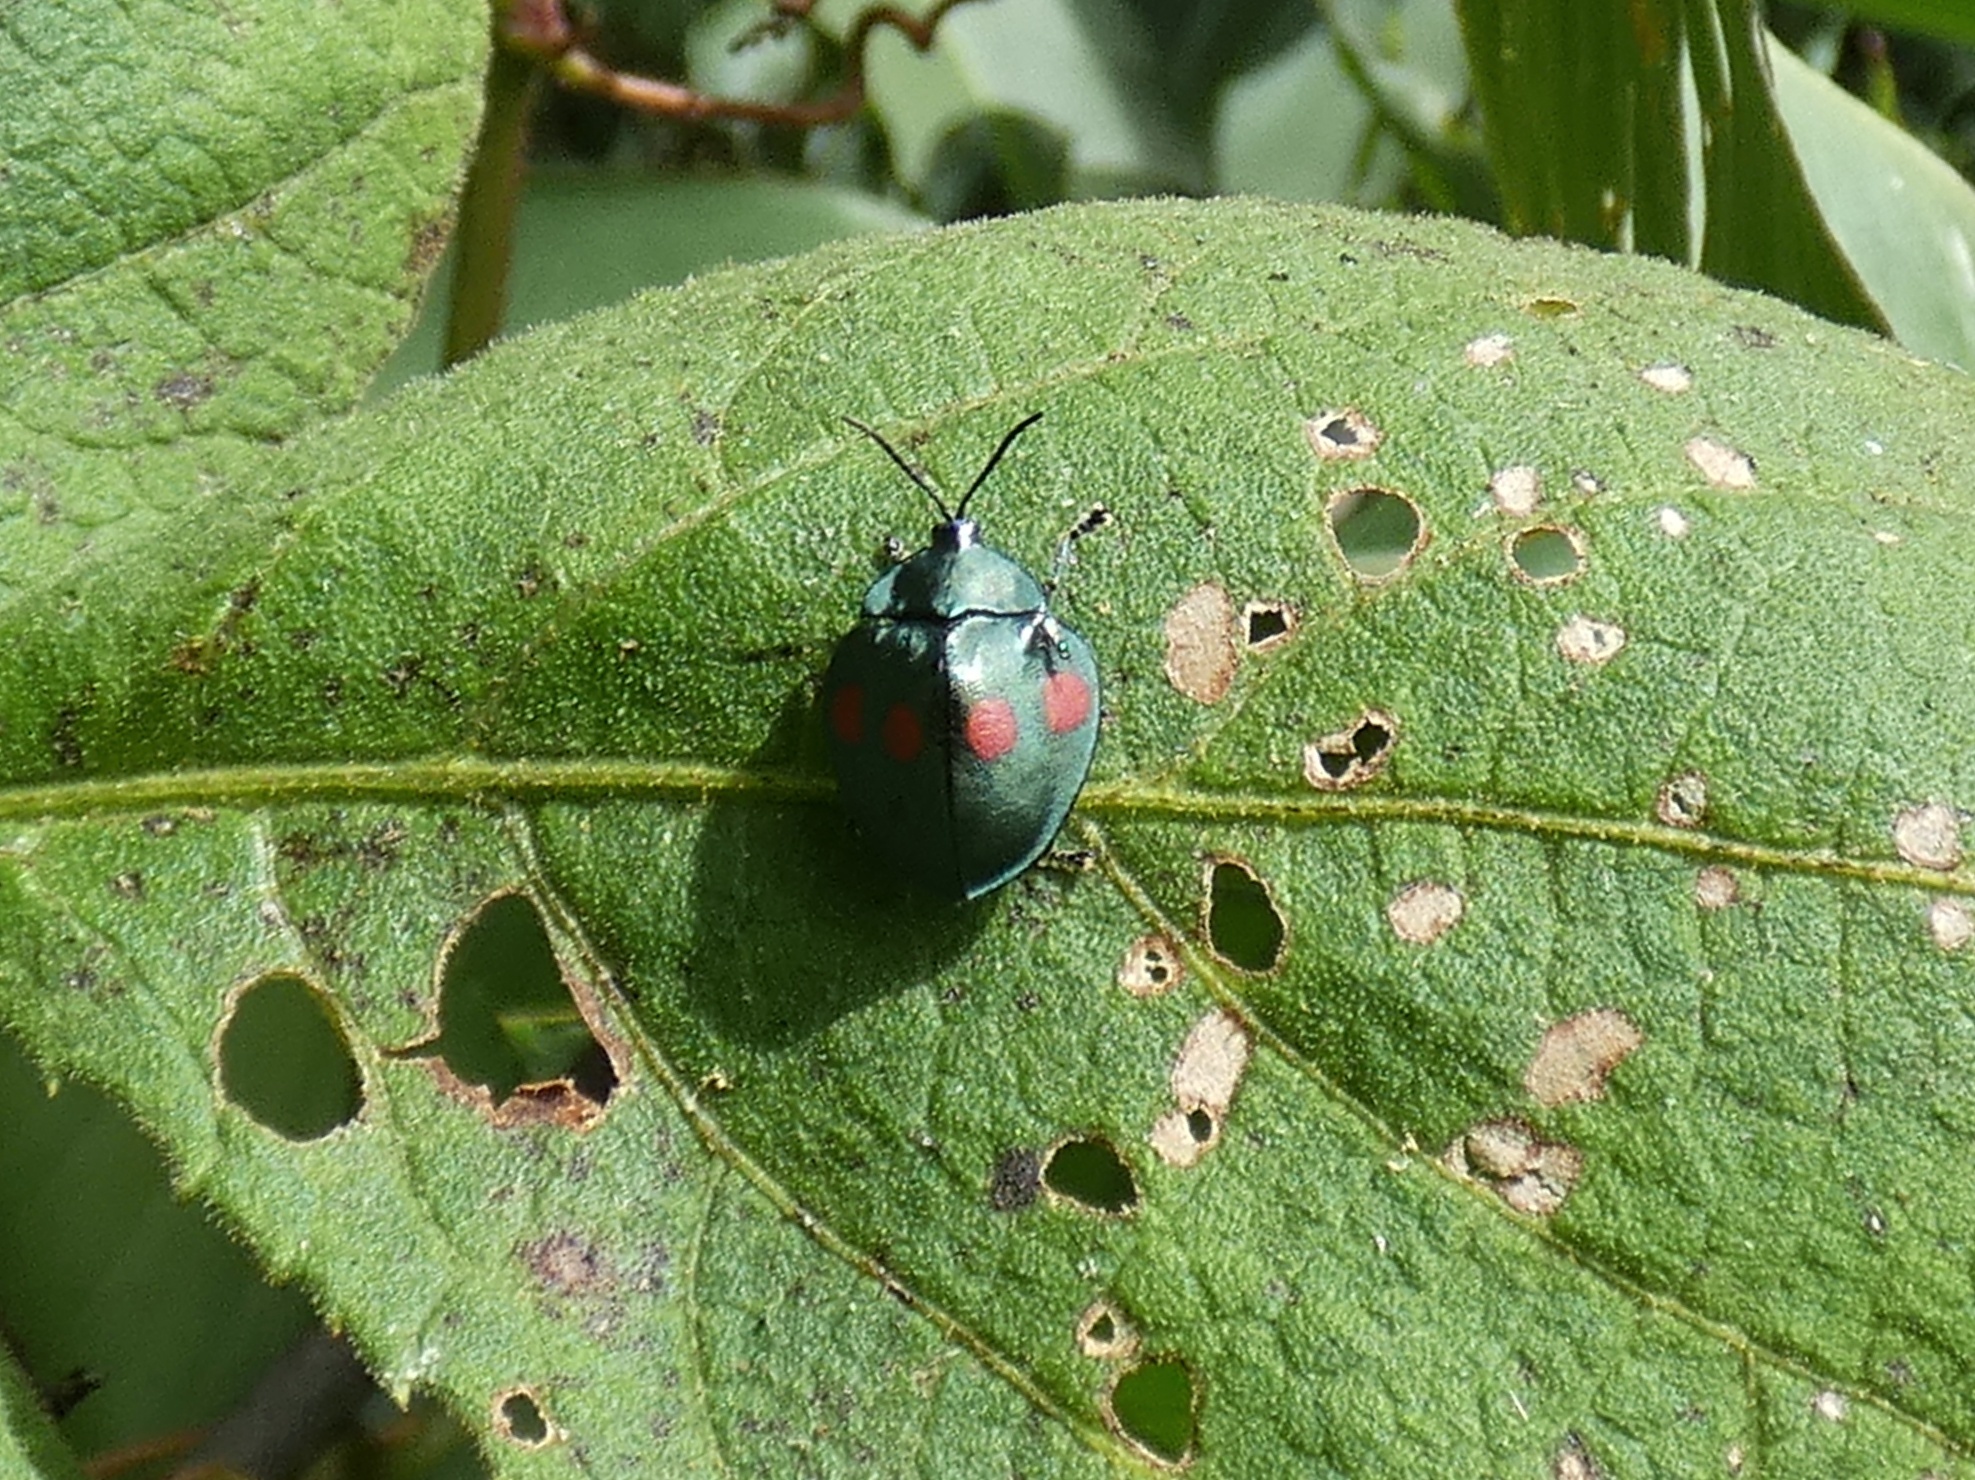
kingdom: Animalia
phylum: Arthropoda
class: Insecta
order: Coleoptera
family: Chrysomelidae
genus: Stolas
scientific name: Stolas lebasii
